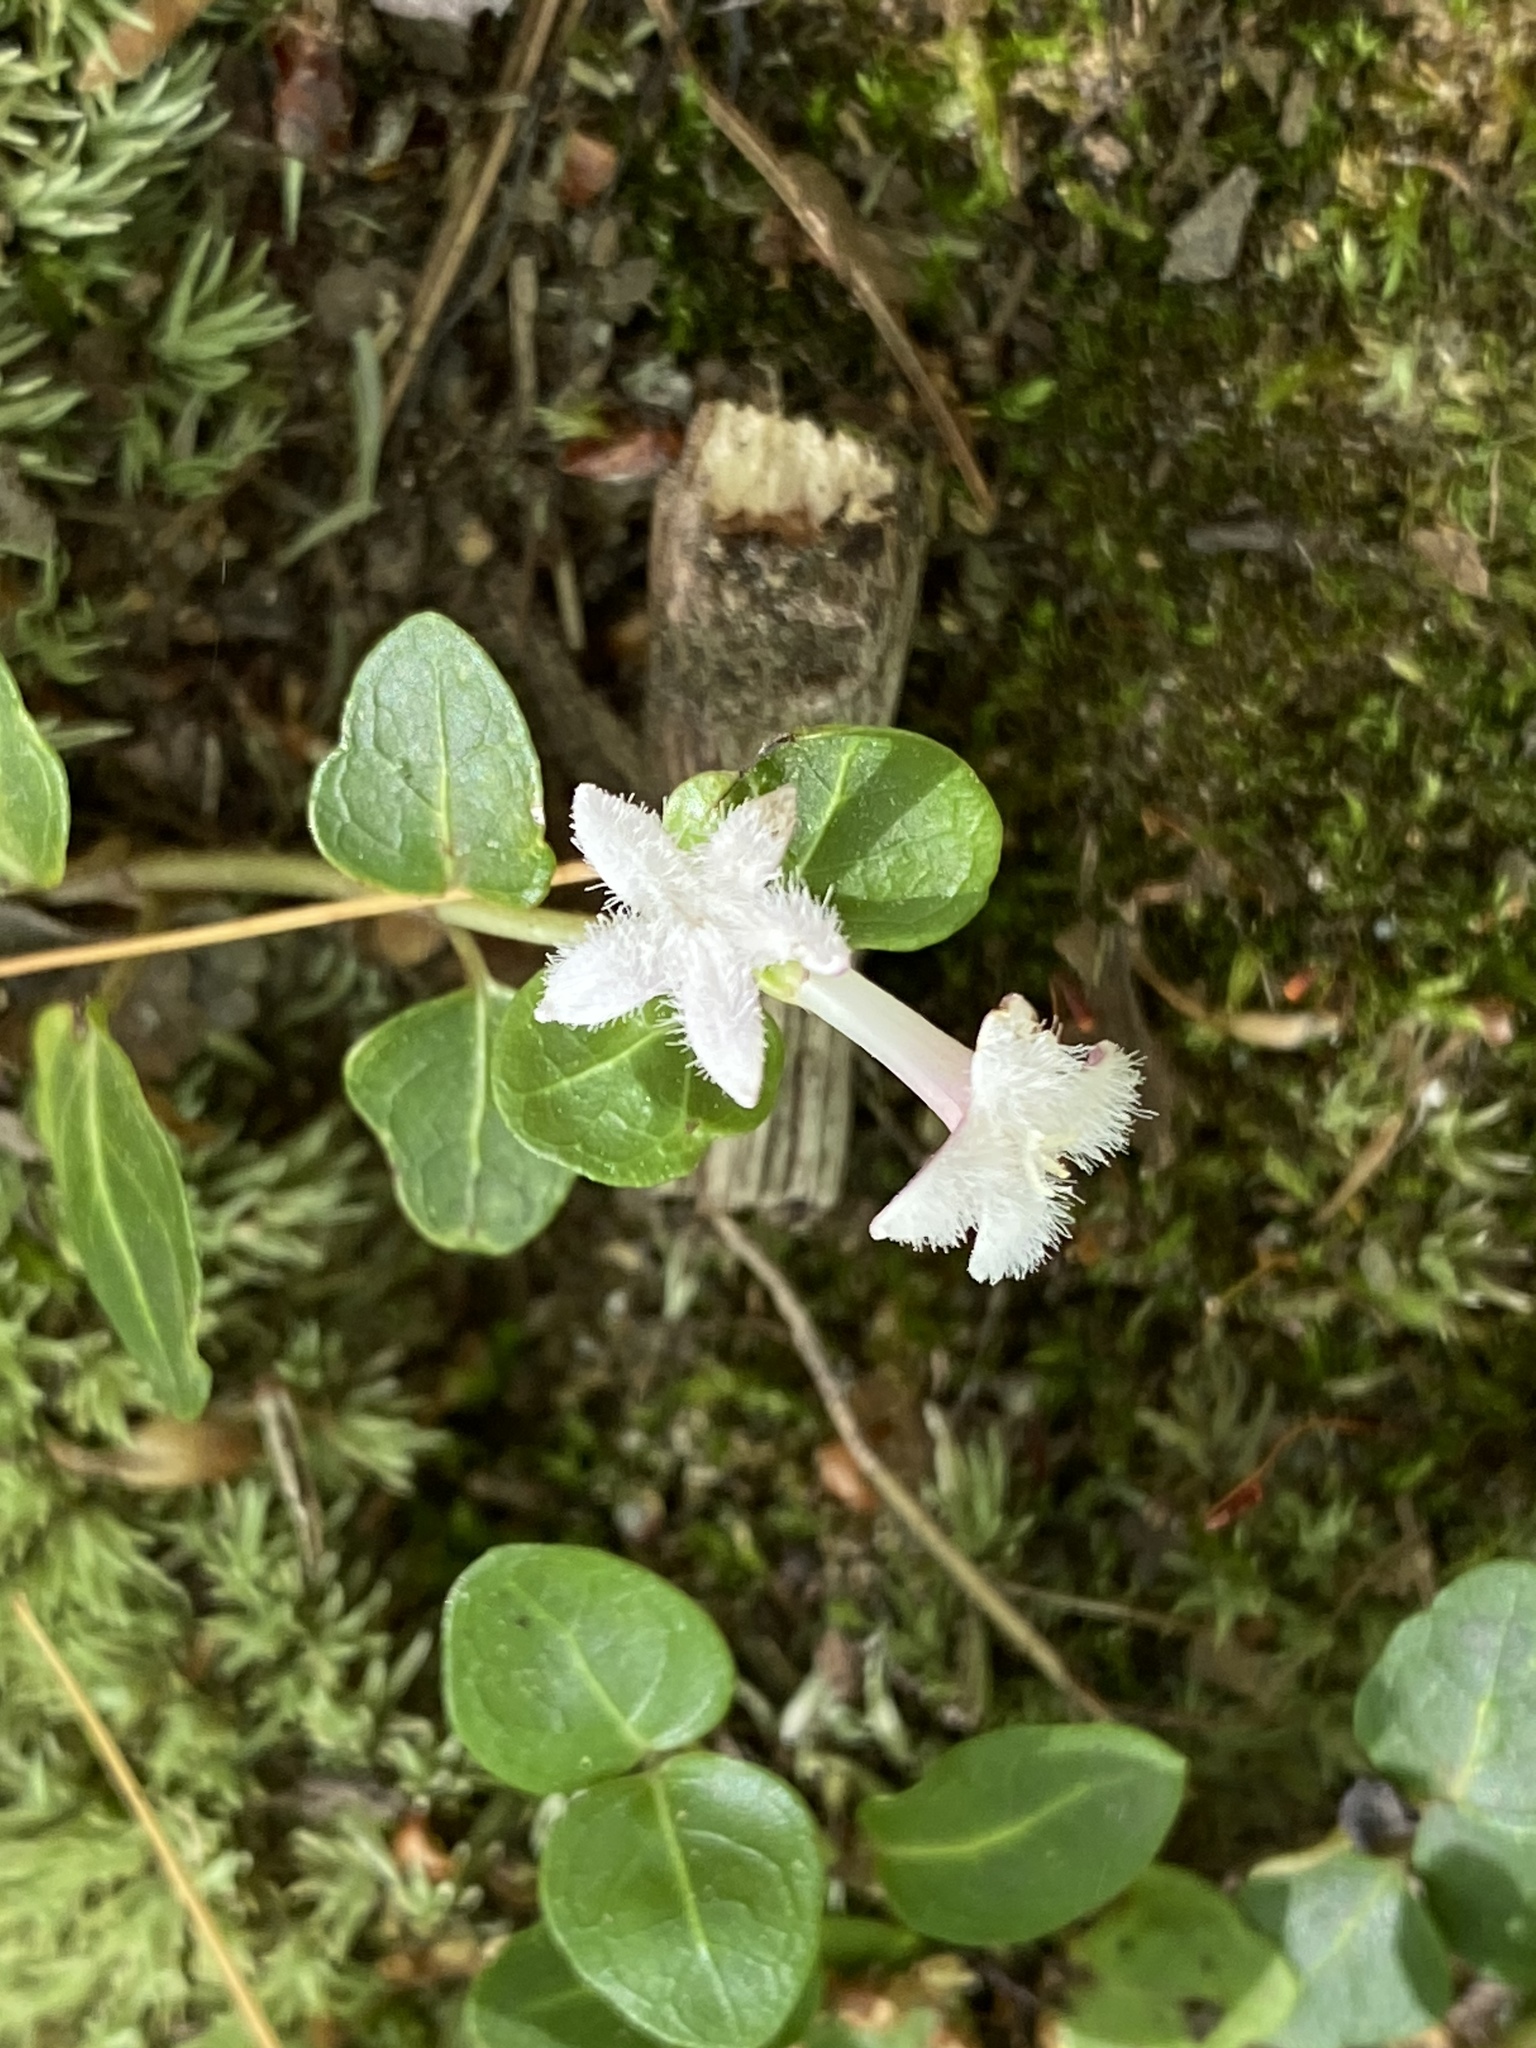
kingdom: Plantae
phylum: Tracheophyta
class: Magnoliopsida
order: Gentianales
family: Rubiaceae
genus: Mitchella
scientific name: Mitchella repens
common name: Partridge-berry
